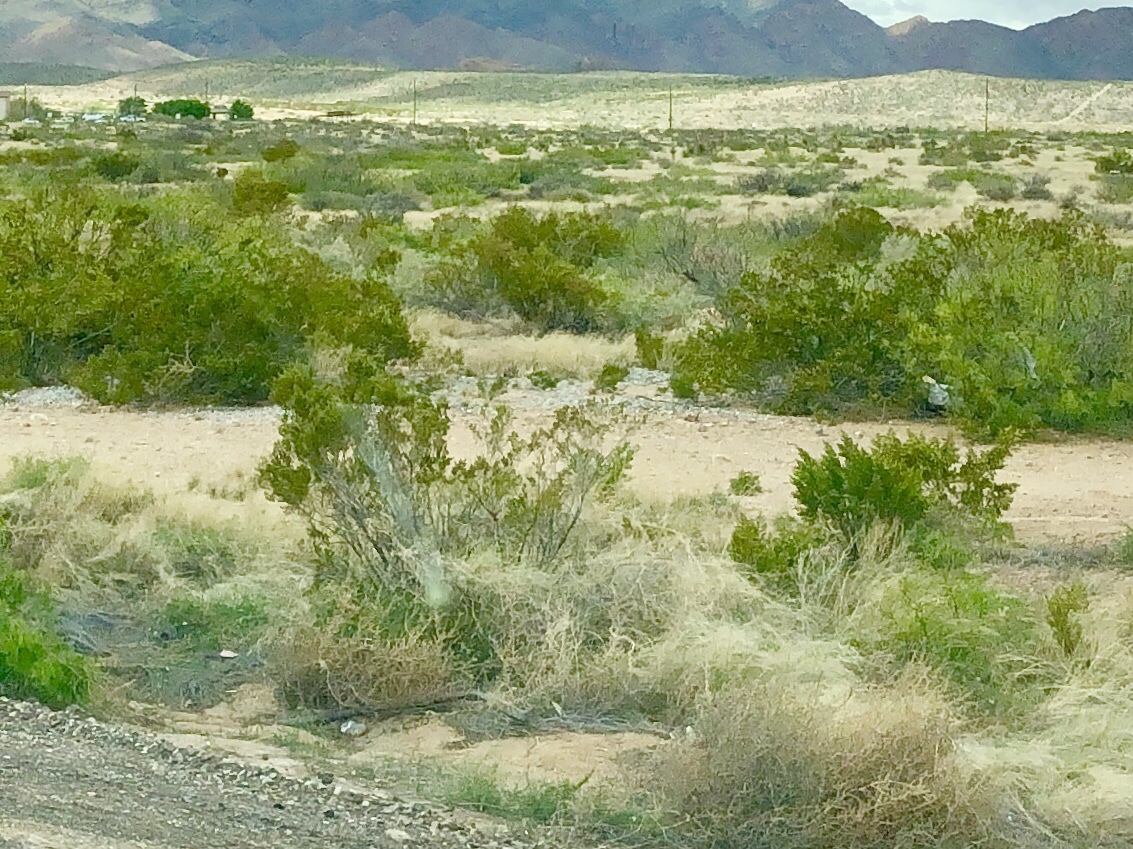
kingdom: Plantae
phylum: Tracheophyta
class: Magnoliopsida
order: Zygophyllales
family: Zygophyllaceae
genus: Larrea
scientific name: Larrea tridentata
